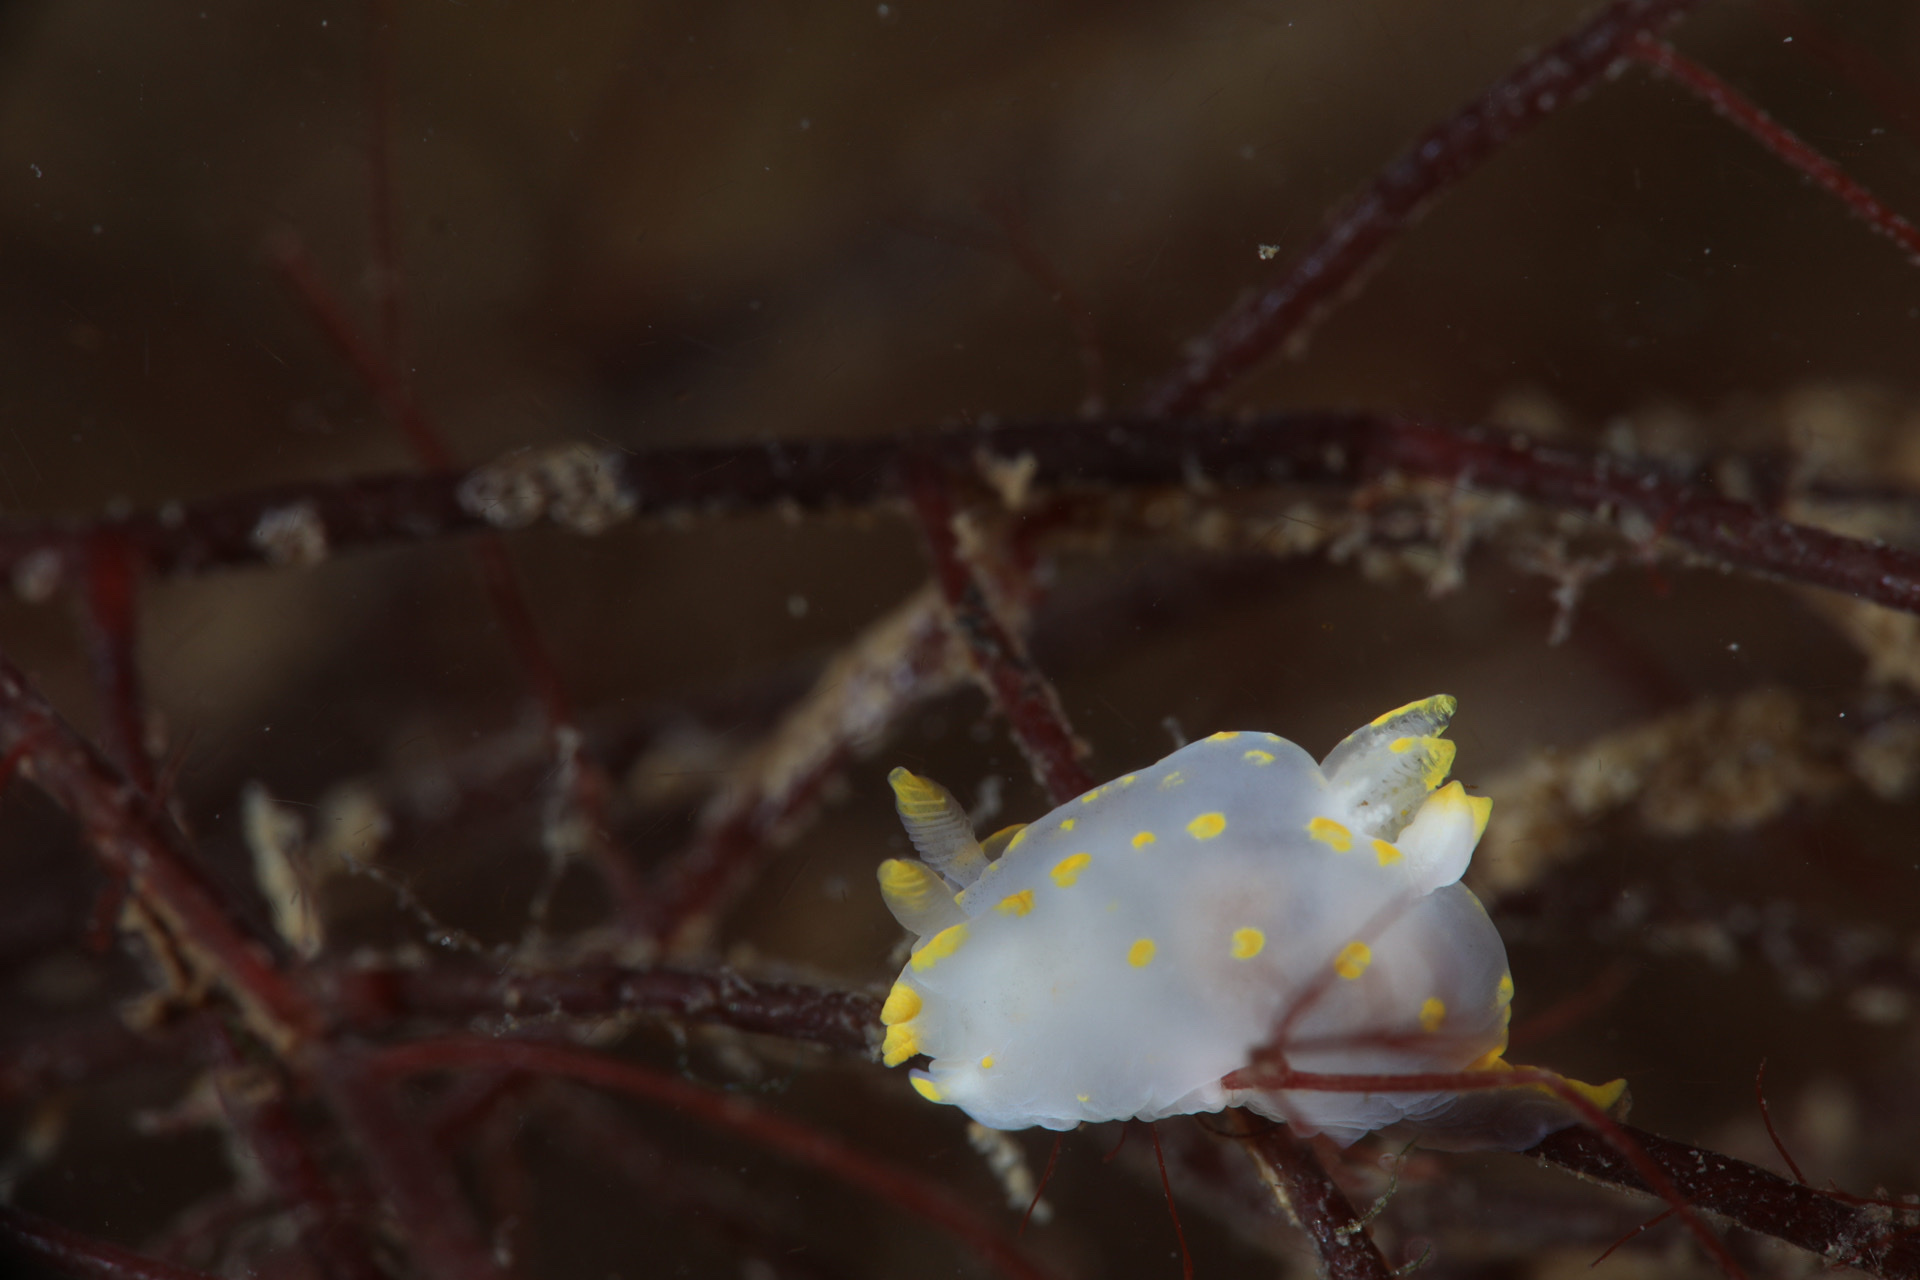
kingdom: Animalia
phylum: Mollusca
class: Gastropoda
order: Nudibranchia
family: Polyceridae
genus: Polycera
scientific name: Polycera quadrilineata
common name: Four-striped polycera
